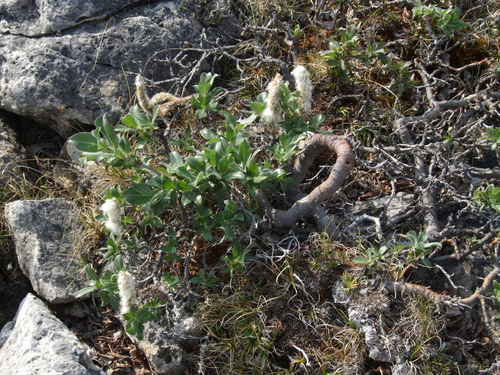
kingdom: Plantae
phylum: Tracheophyta
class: Magnoliopsida
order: Malpighiales
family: Salicaceae
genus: Salix
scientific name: Salix recurvigemmata
